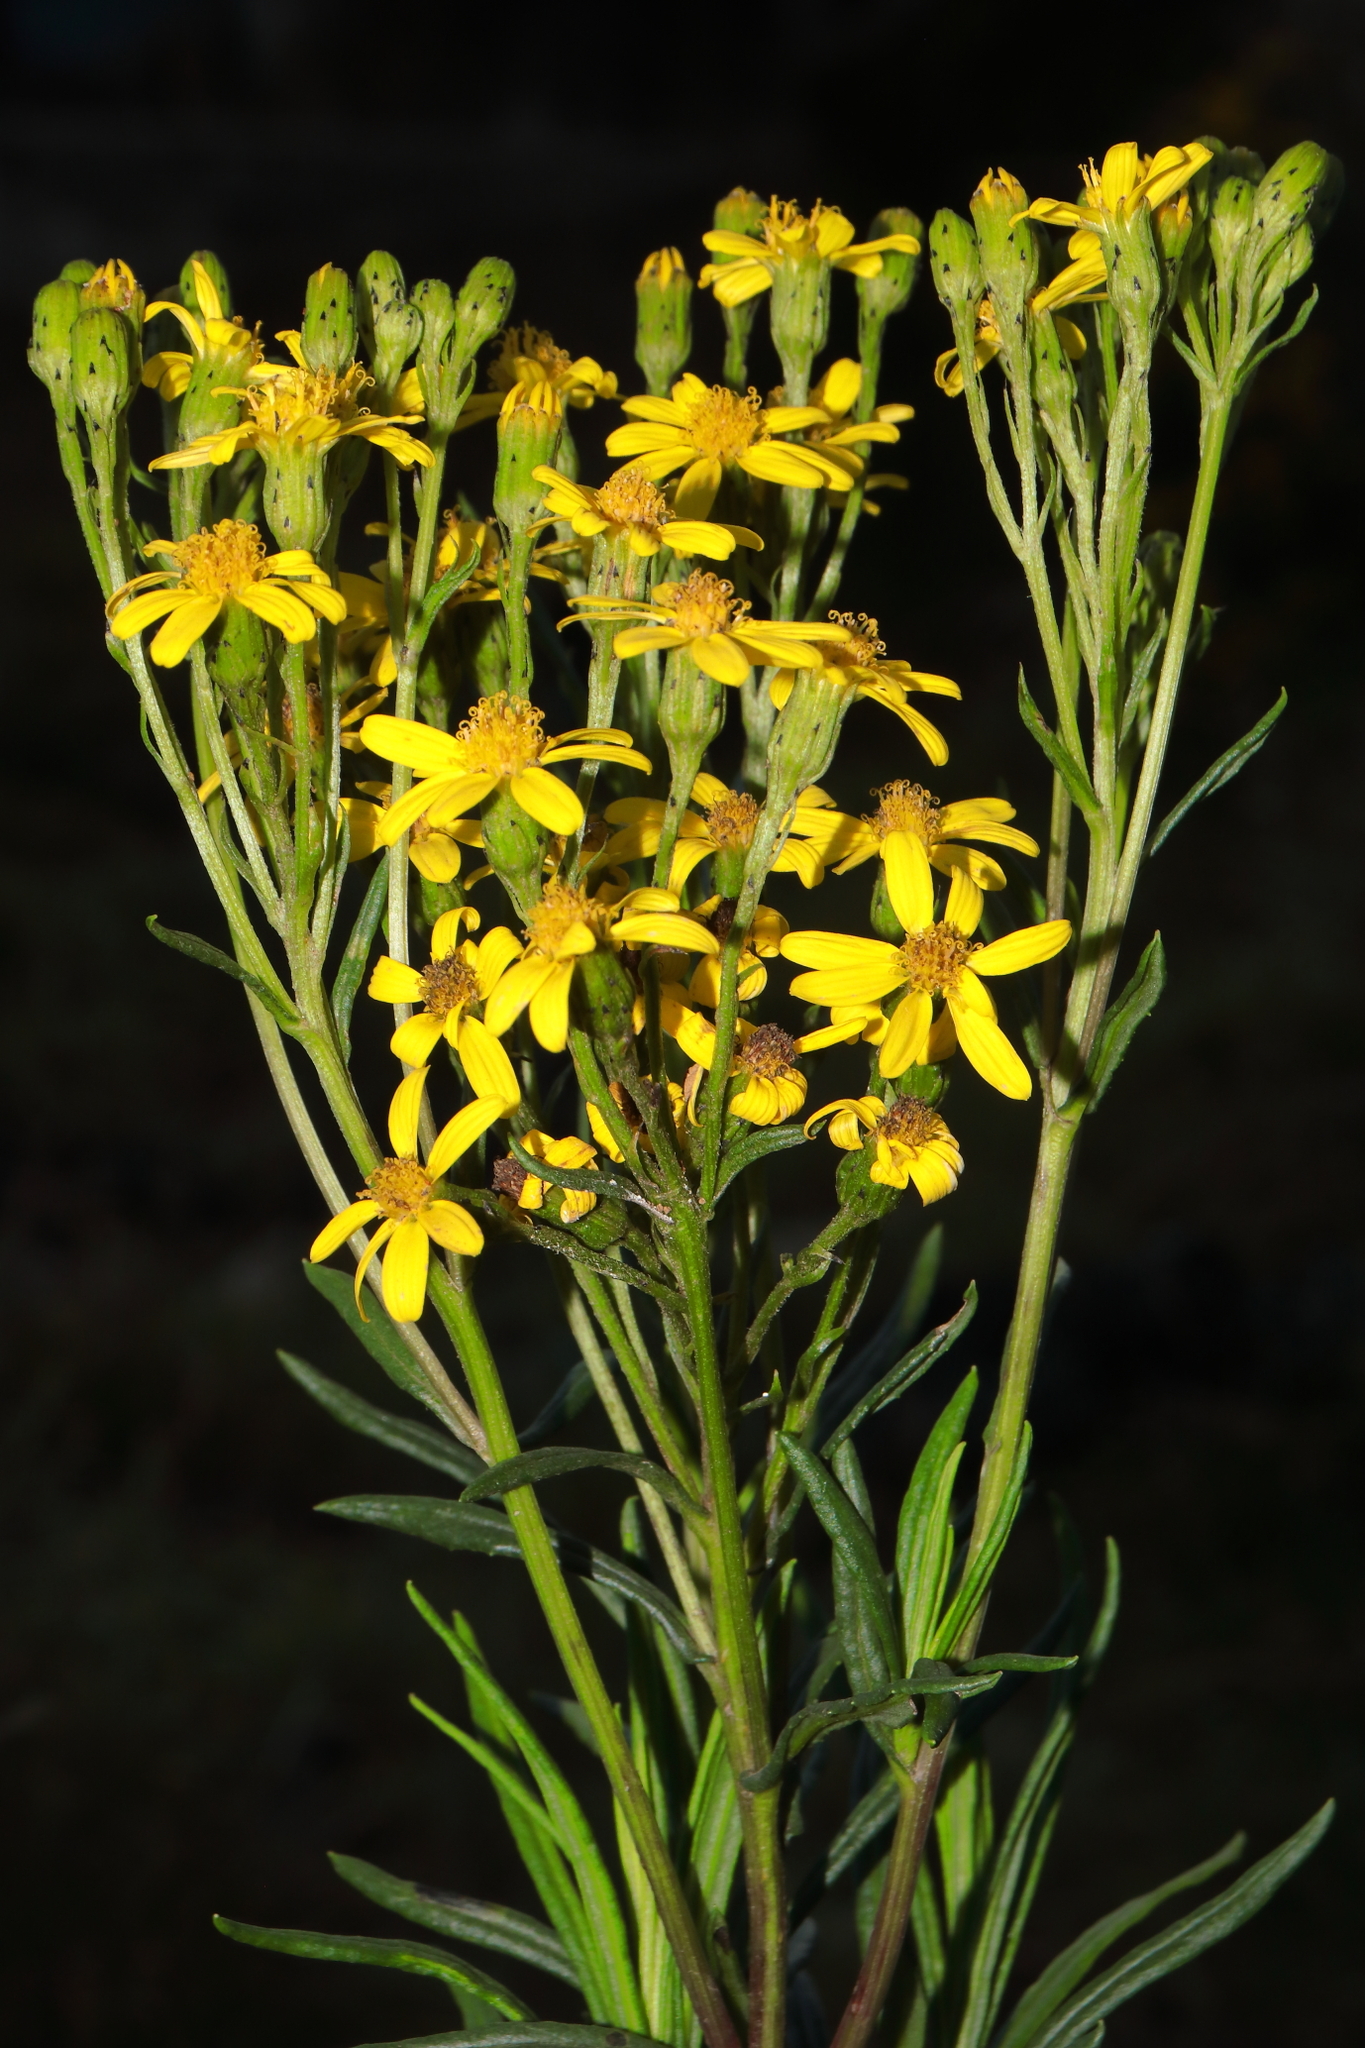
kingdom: Plantae
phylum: Tracheophyta
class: Magnoliopsida
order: Asterales
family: Asteraceae
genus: Senecio
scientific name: Senecio ferreyrae
